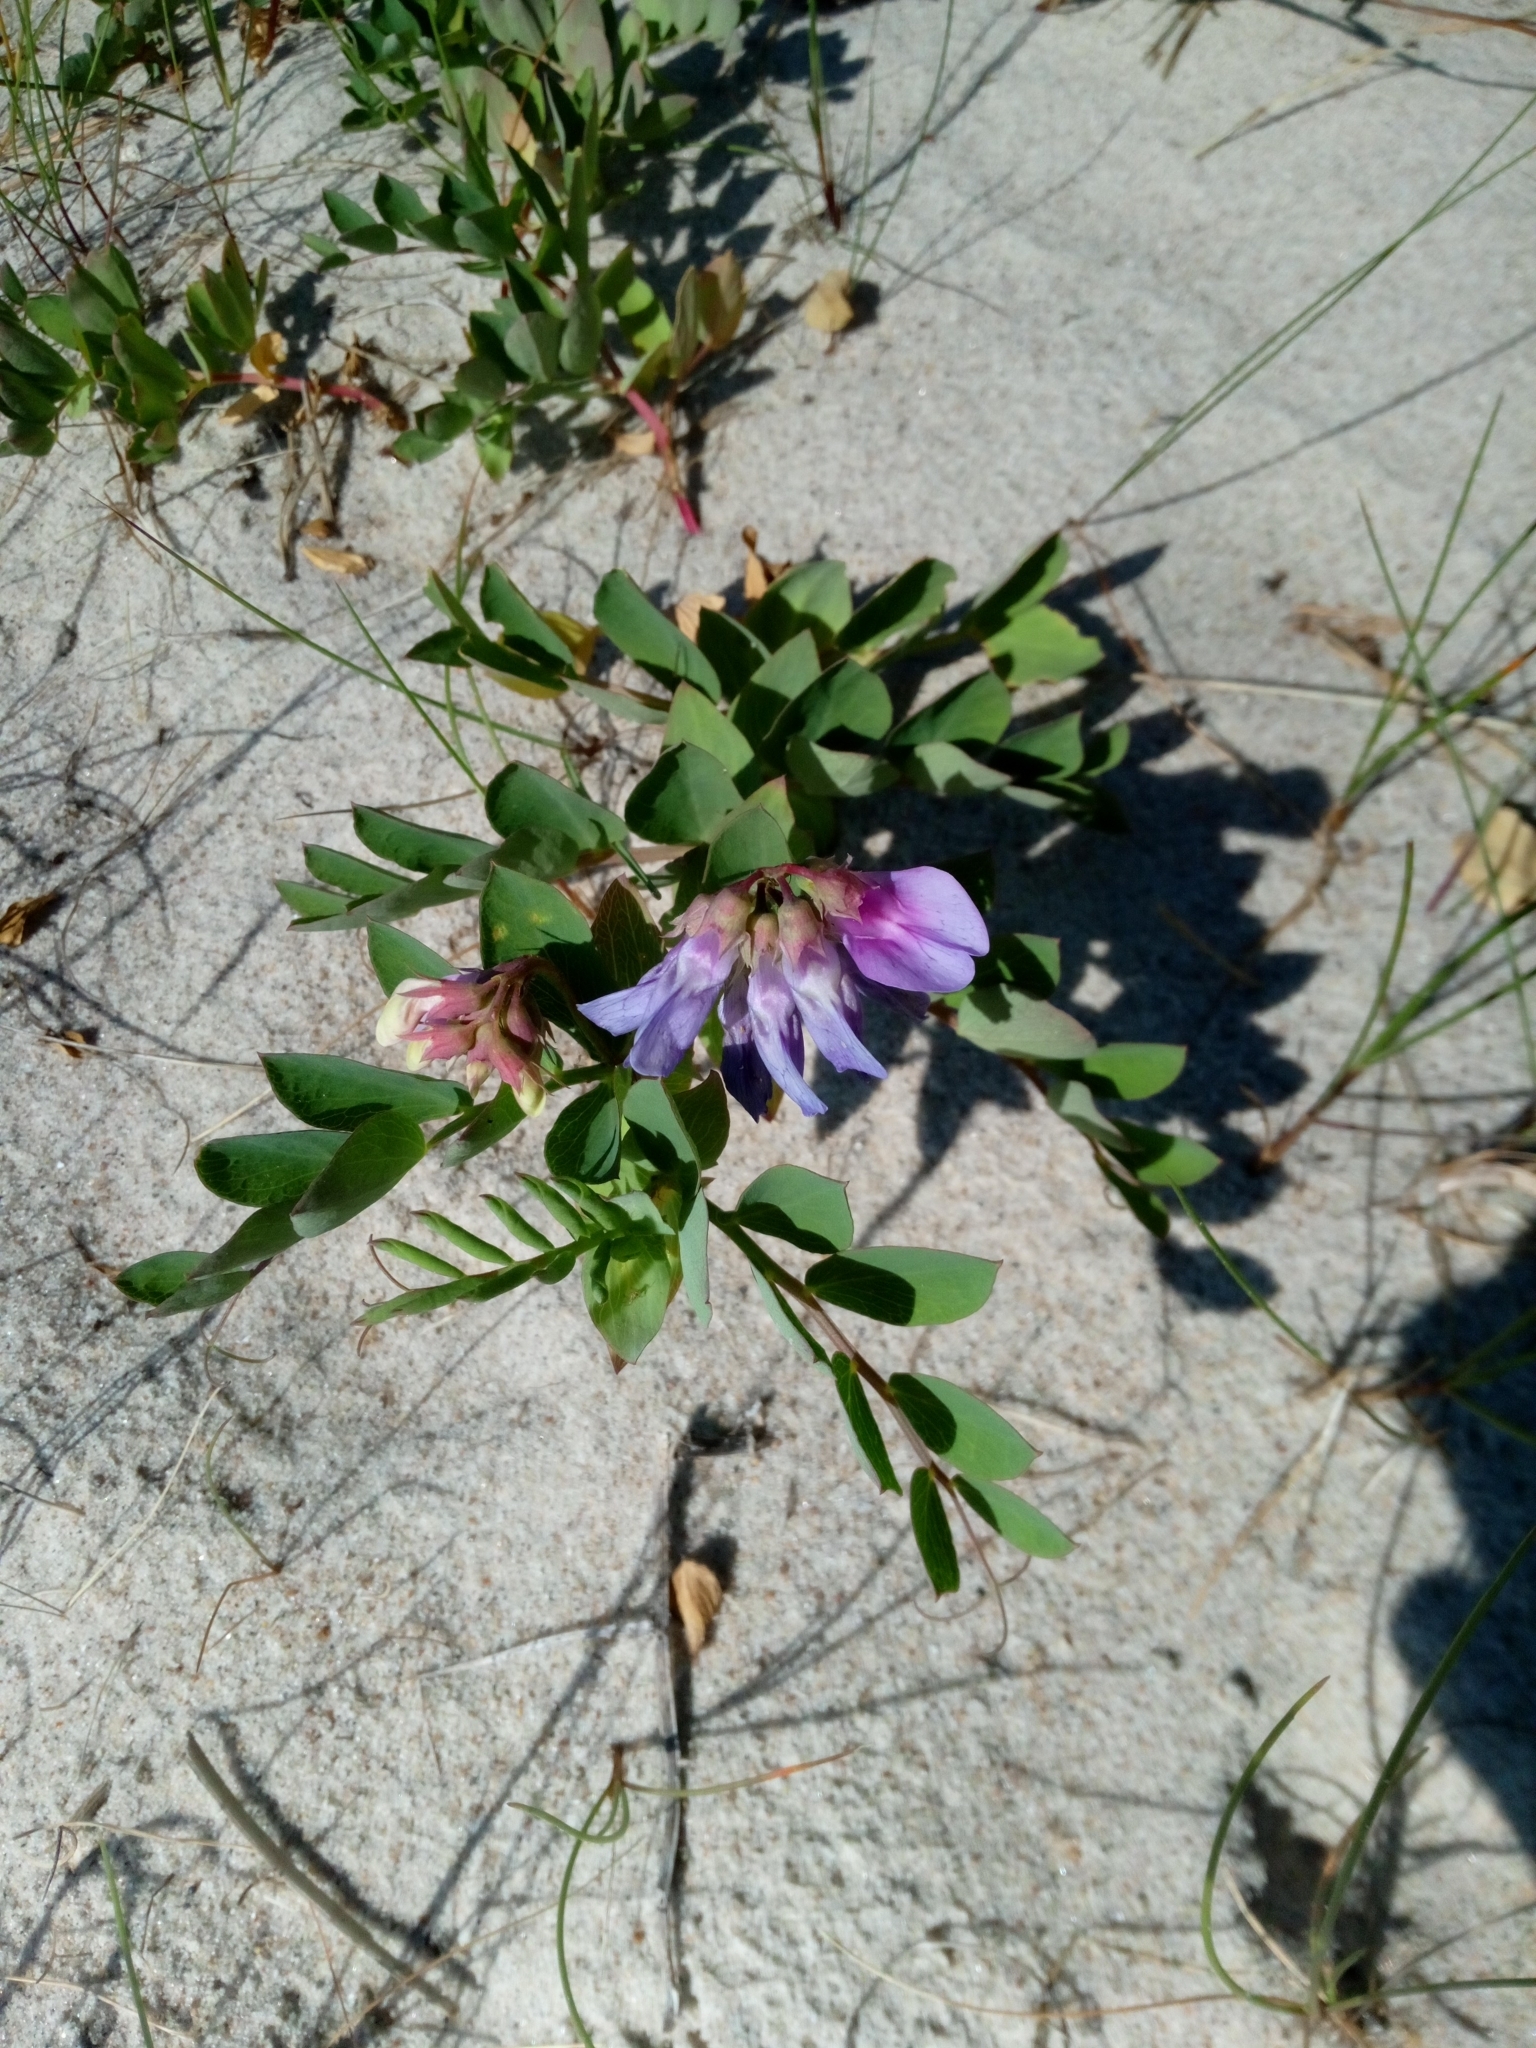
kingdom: Plantae
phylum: Tracheophyta
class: Magnoliopsida
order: Fabales
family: Fabaceae
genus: Lathyrus
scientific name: Lathyrus japonicus
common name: Sea pea
